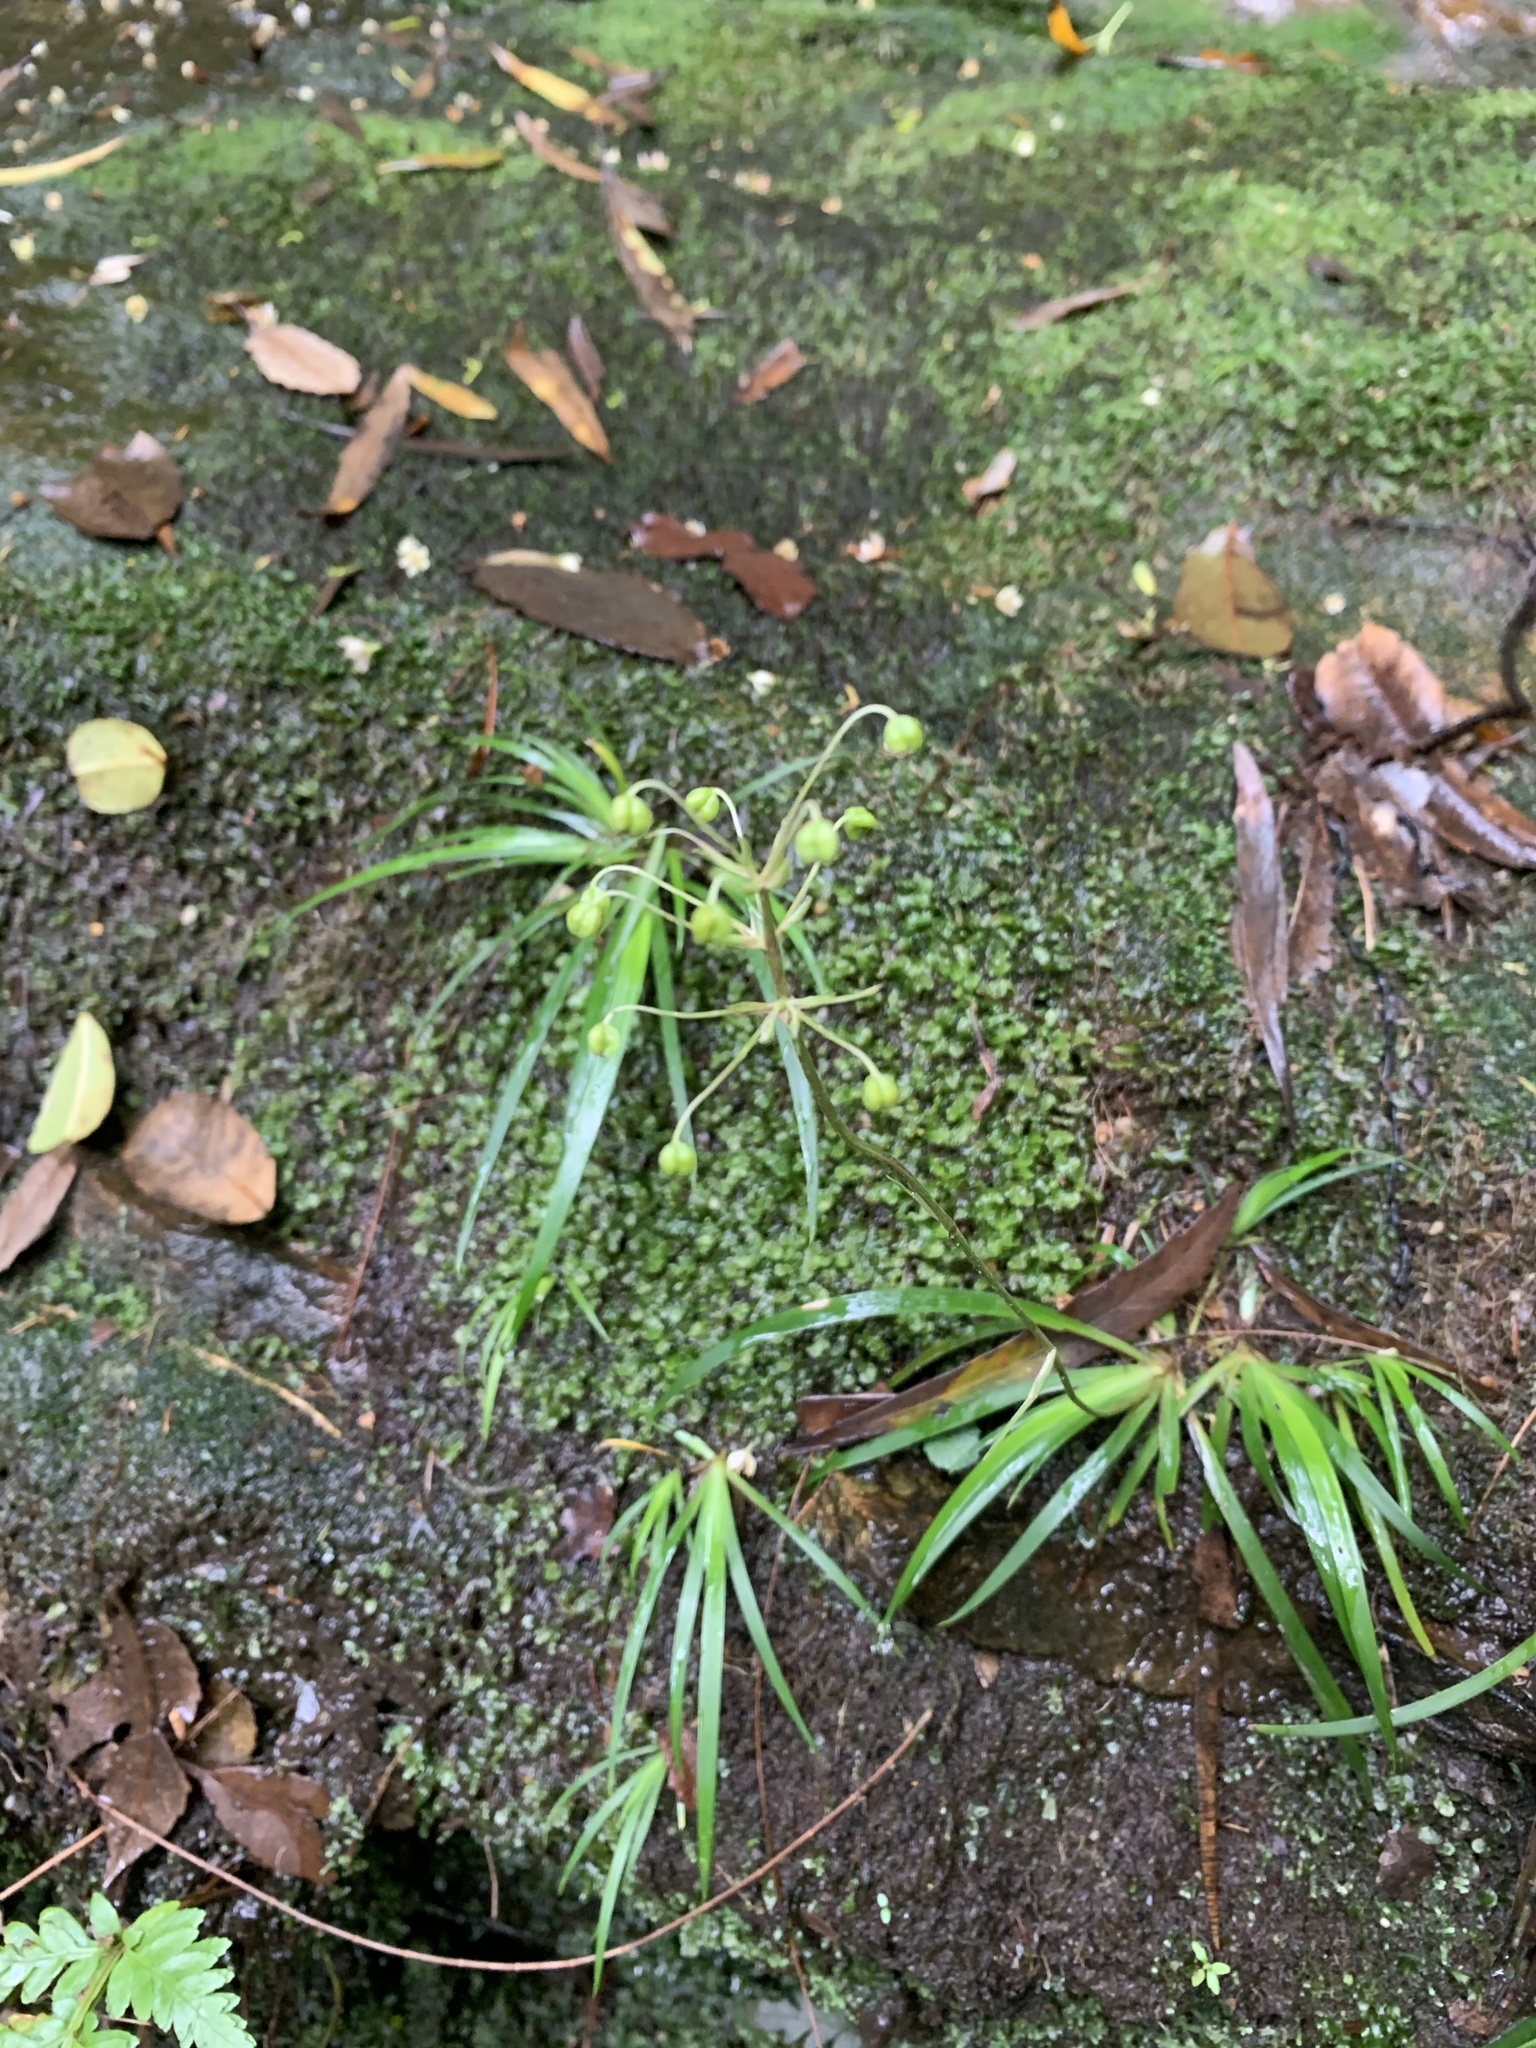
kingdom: Plantae
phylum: Tracheophyta
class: Liliopsida
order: Asparagales
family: Iridaceae
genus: Libertia
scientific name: Libertia pulchella
